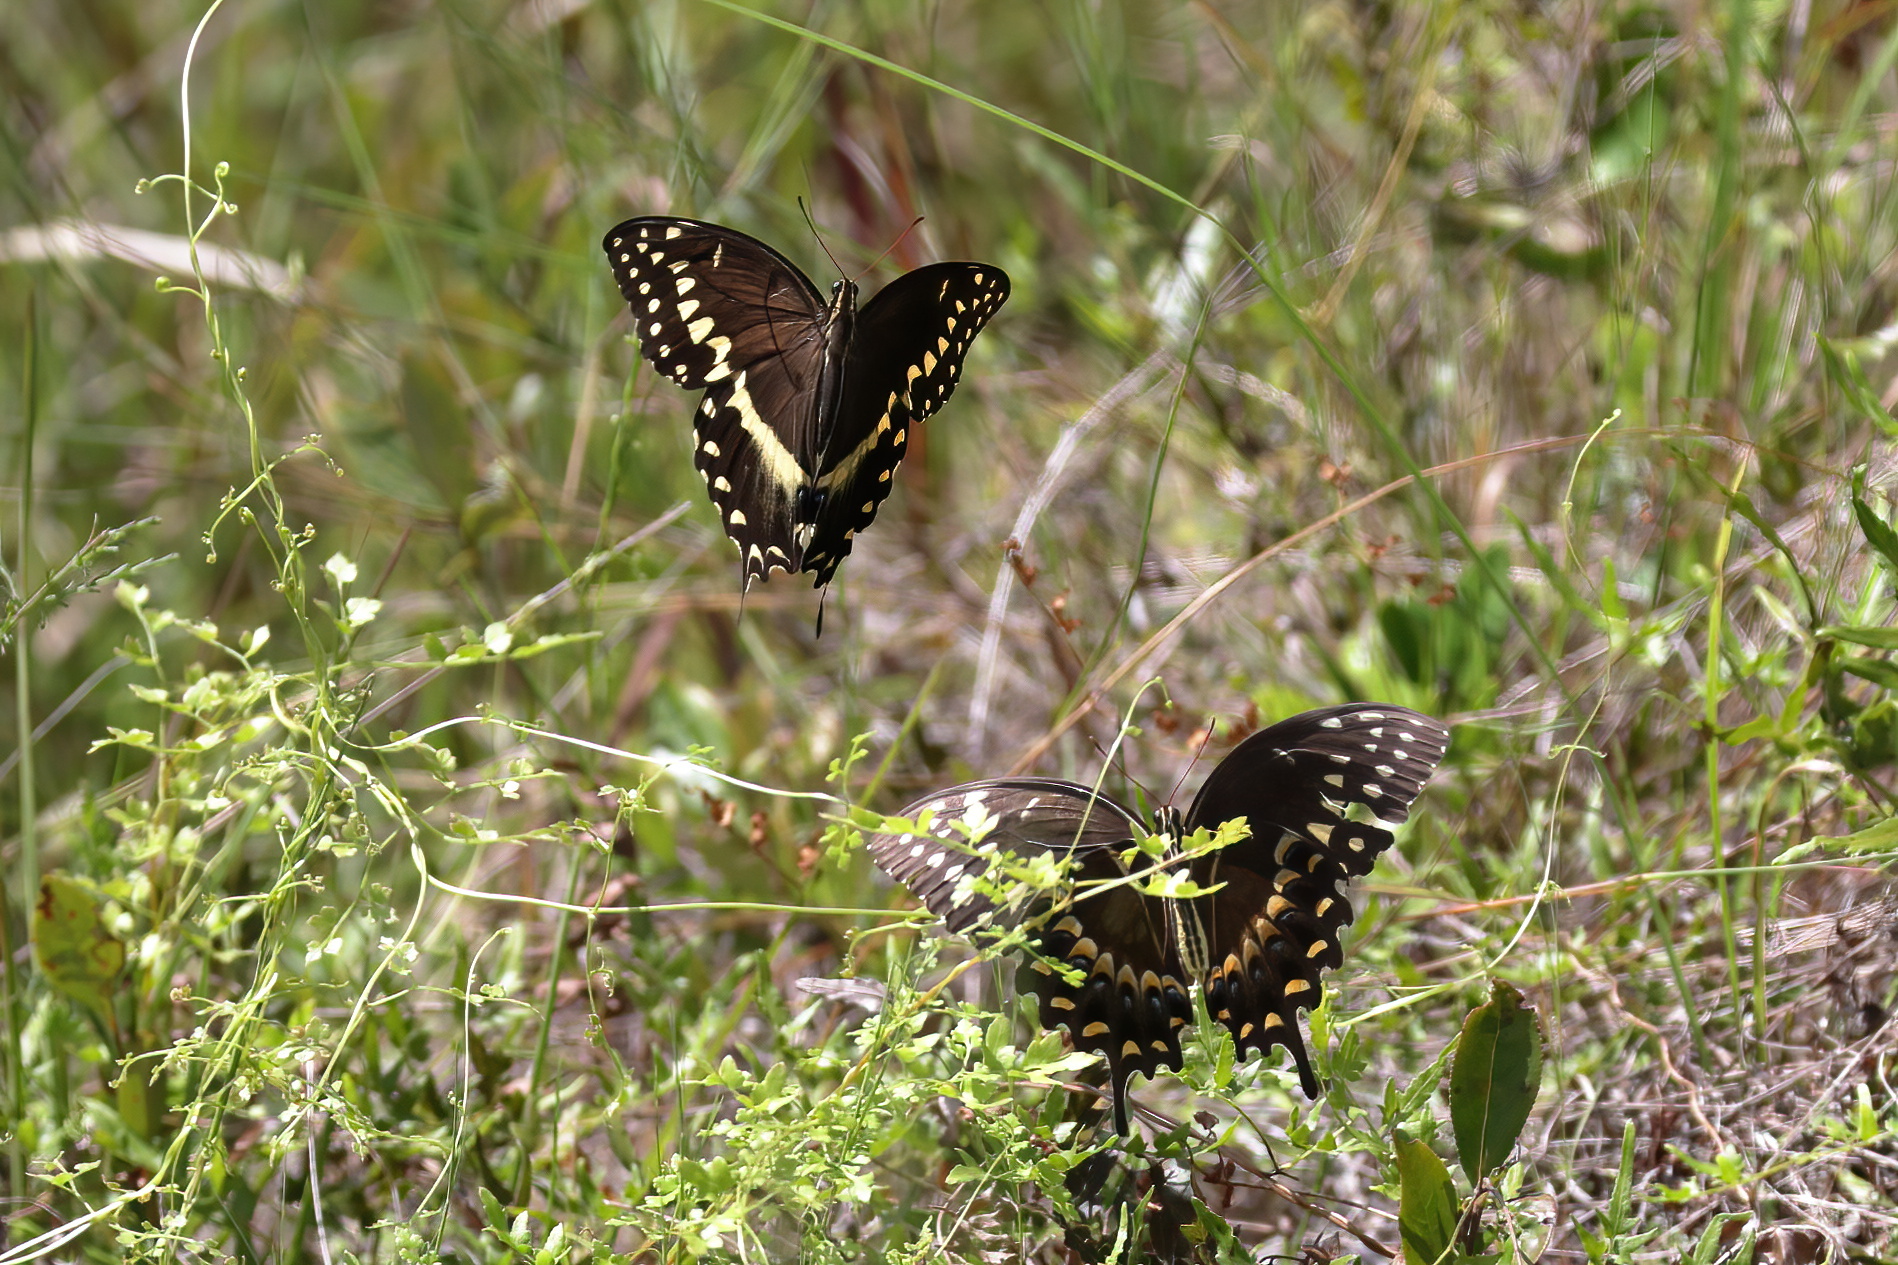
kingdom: Animalia
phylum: Arthropoda
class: Insecta
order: Lepidoptera
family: Papilionidae
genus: Papilio
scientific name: Papilio palamedes
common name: Palamedes swallowtail
